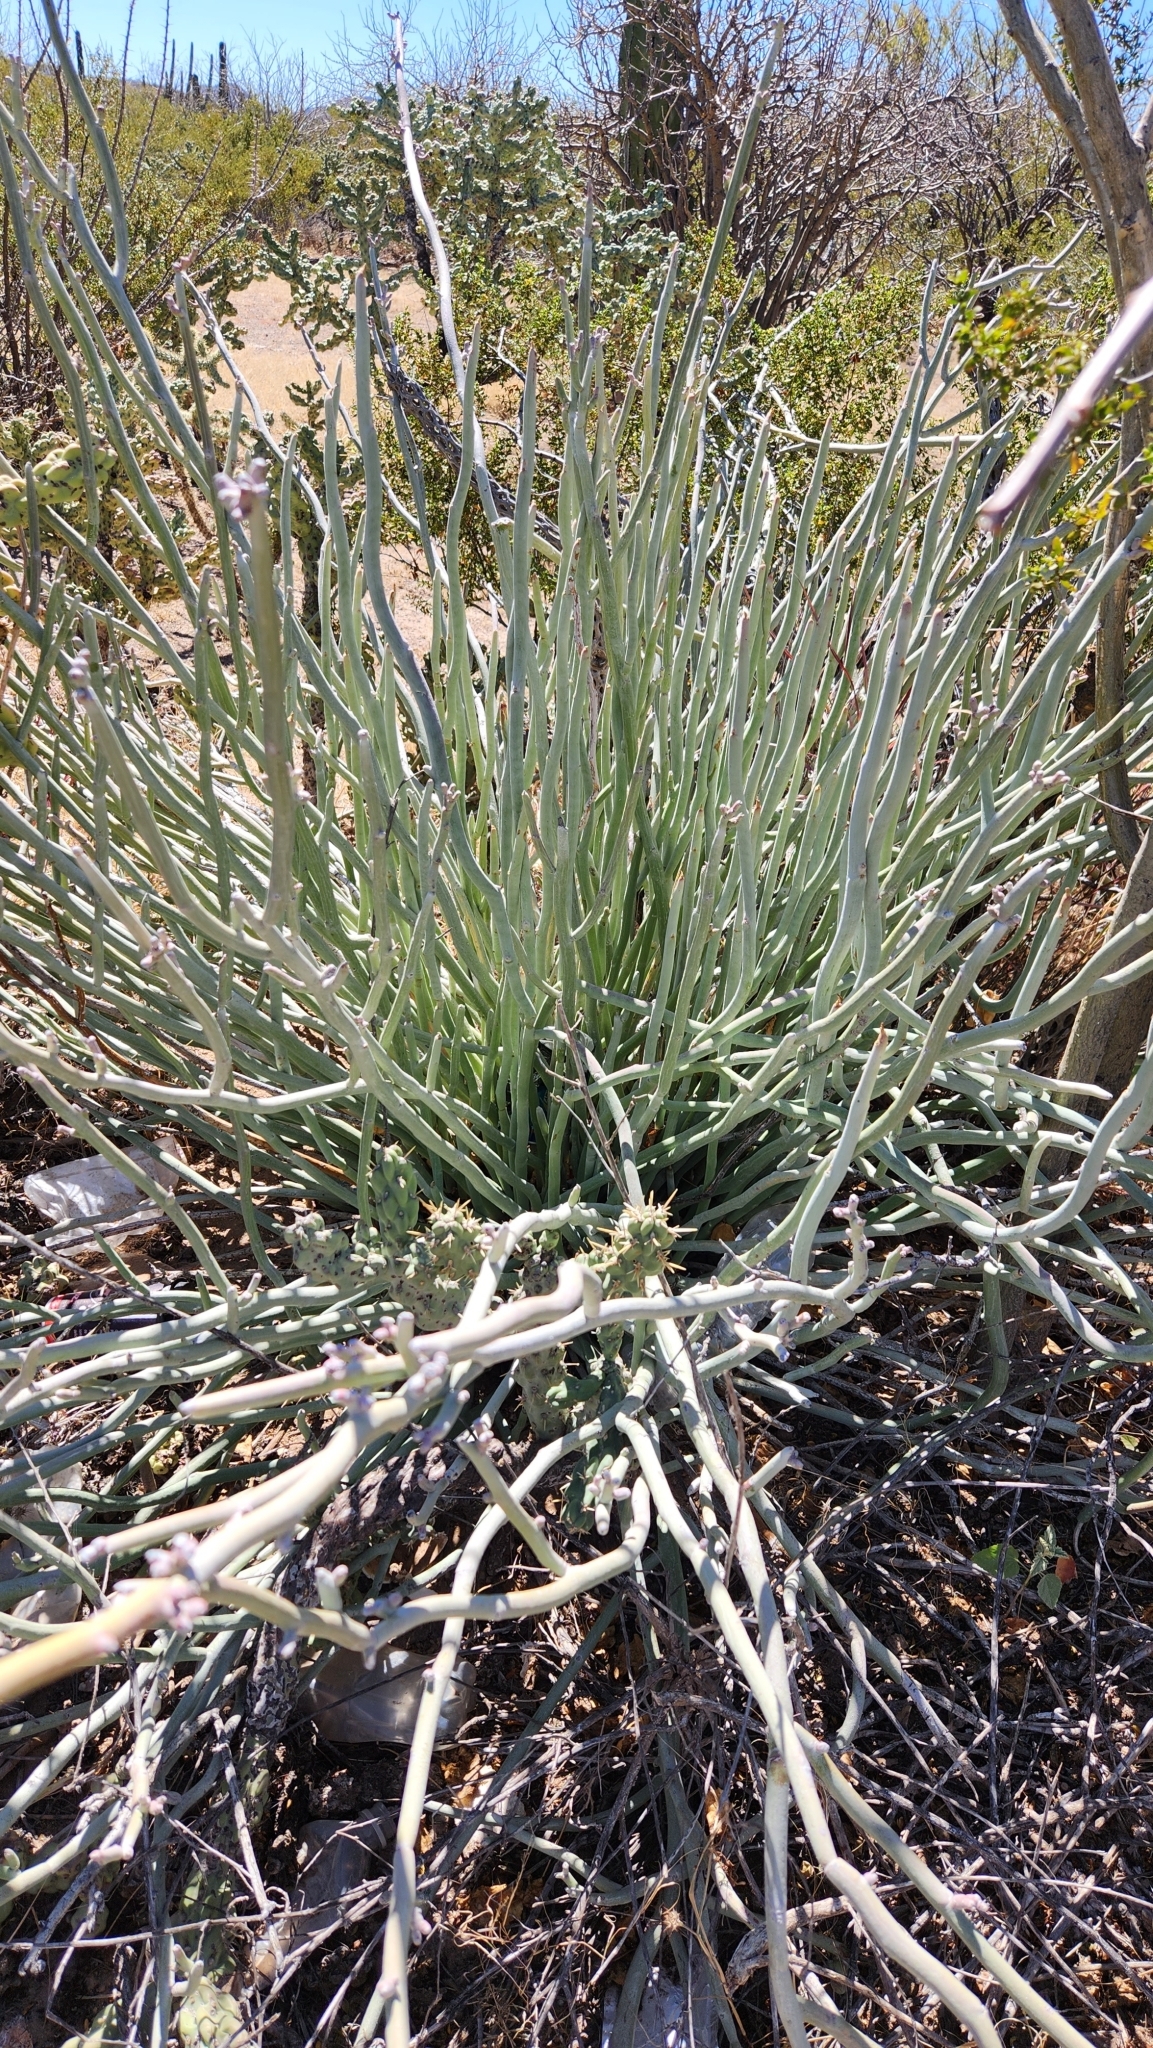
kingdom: Plantae
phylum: Tracheophyta
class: Magnoliopsida
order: Malpighiales
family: Euphorbiaceae
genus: Euphorbia
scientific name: Euphorbia lomelii
